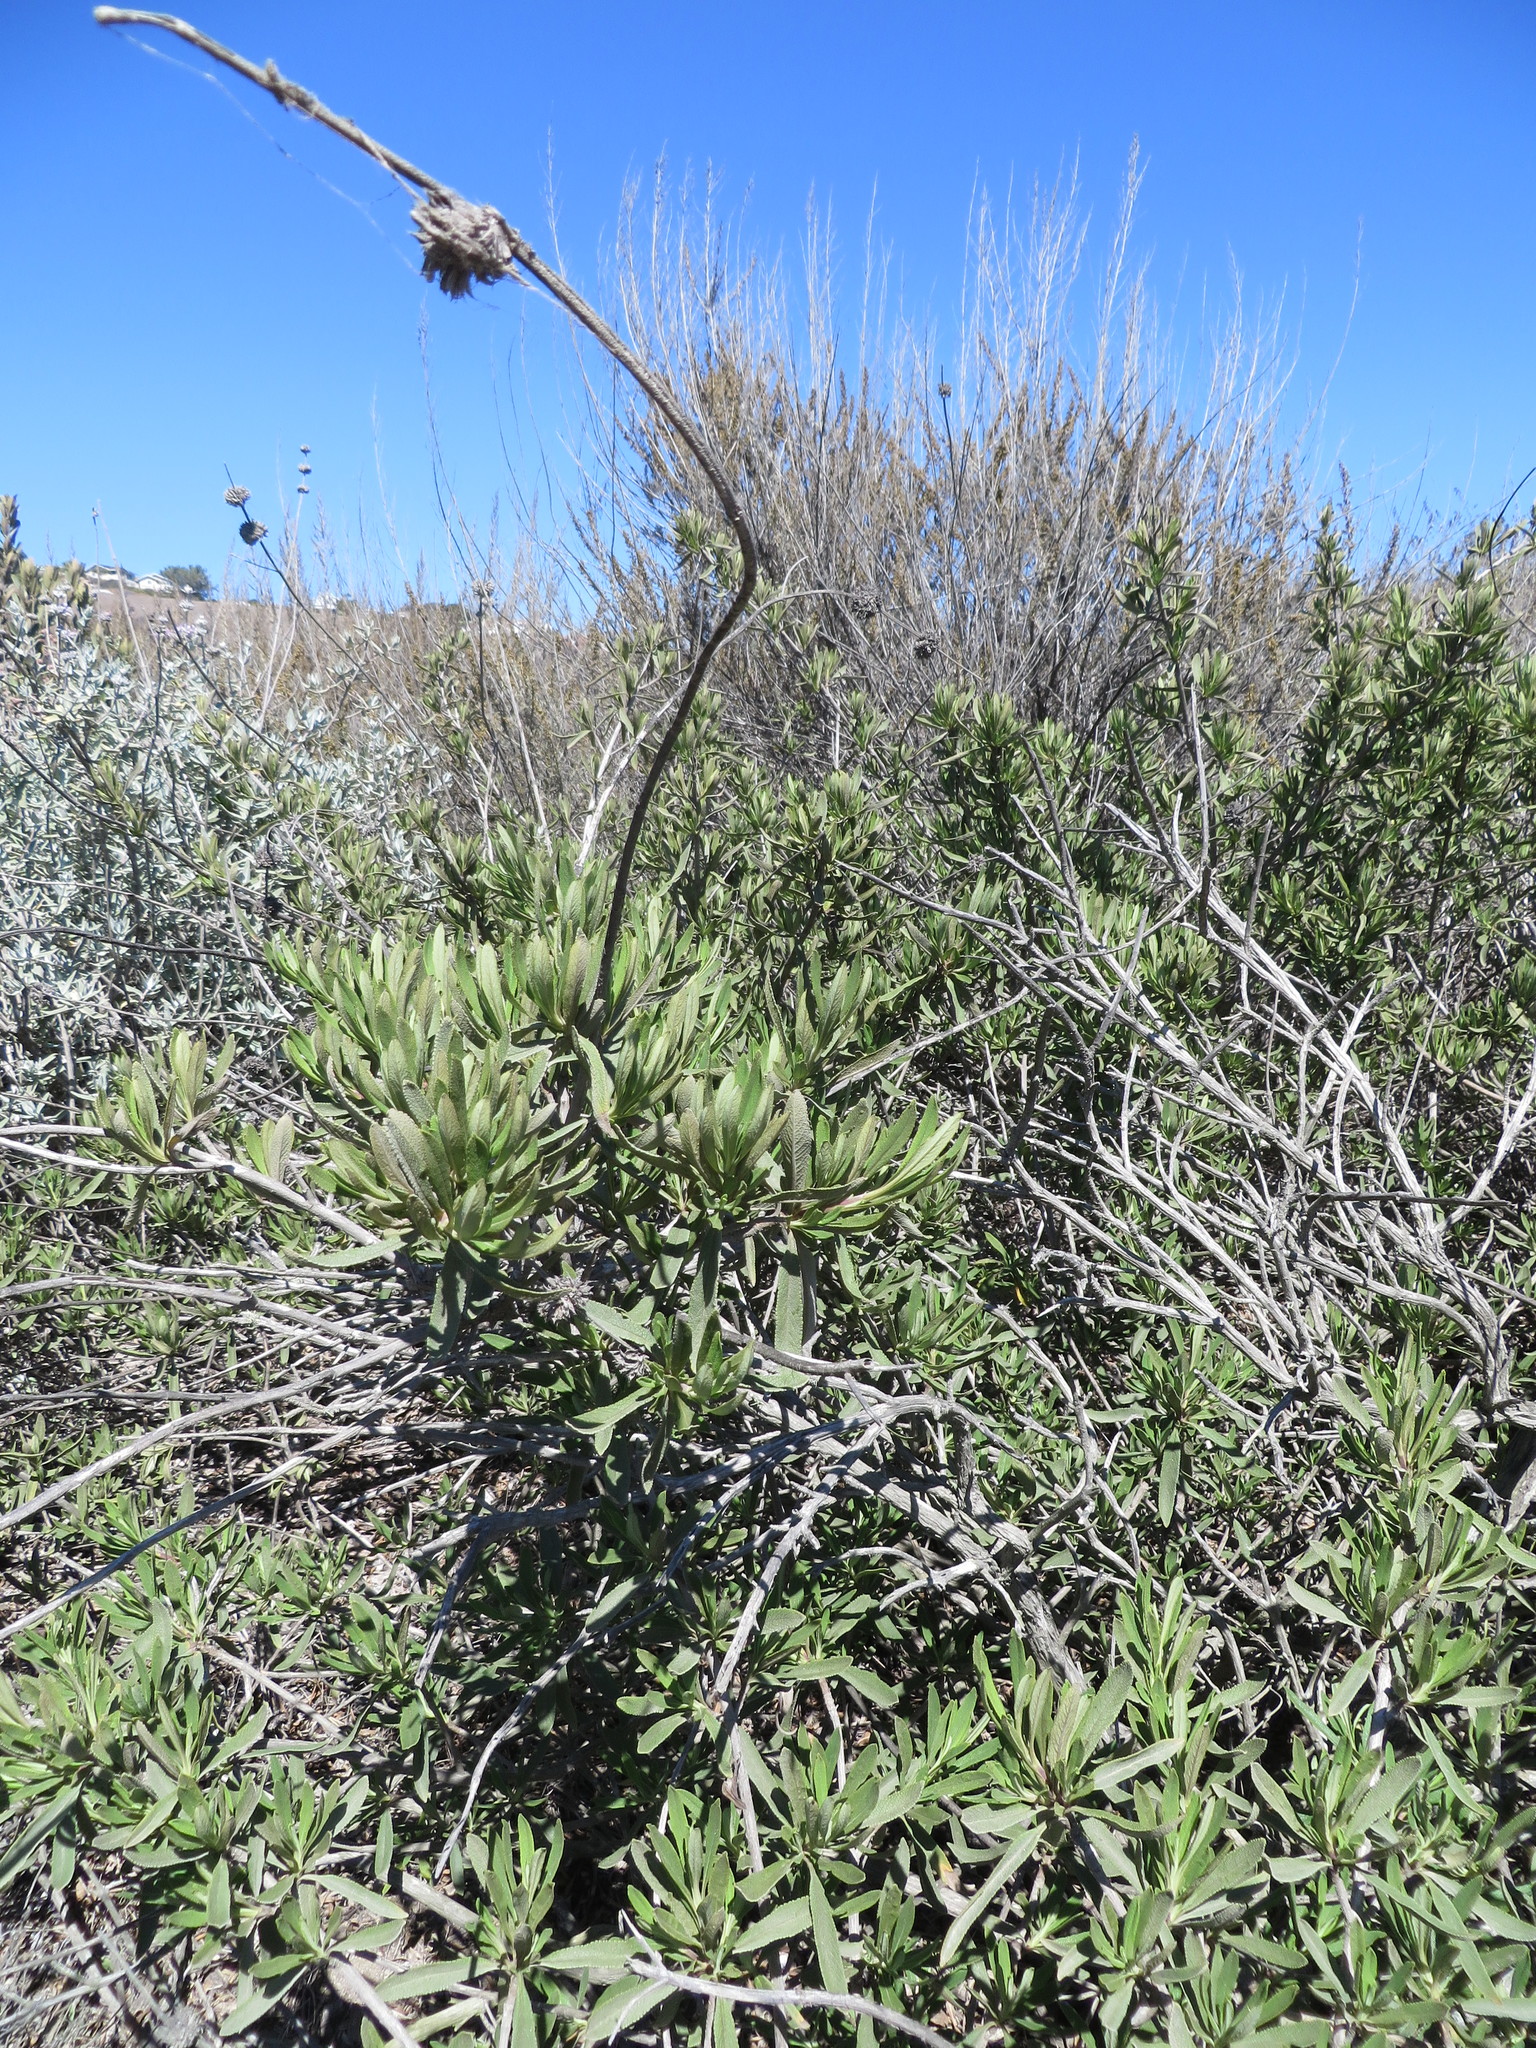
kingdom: Plantae
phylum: Tracheophyta
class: Magnoliopsida
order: Lamiales
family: Lamiaceae
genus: Salvia
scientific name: Salvia mellifera
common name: Black sage
